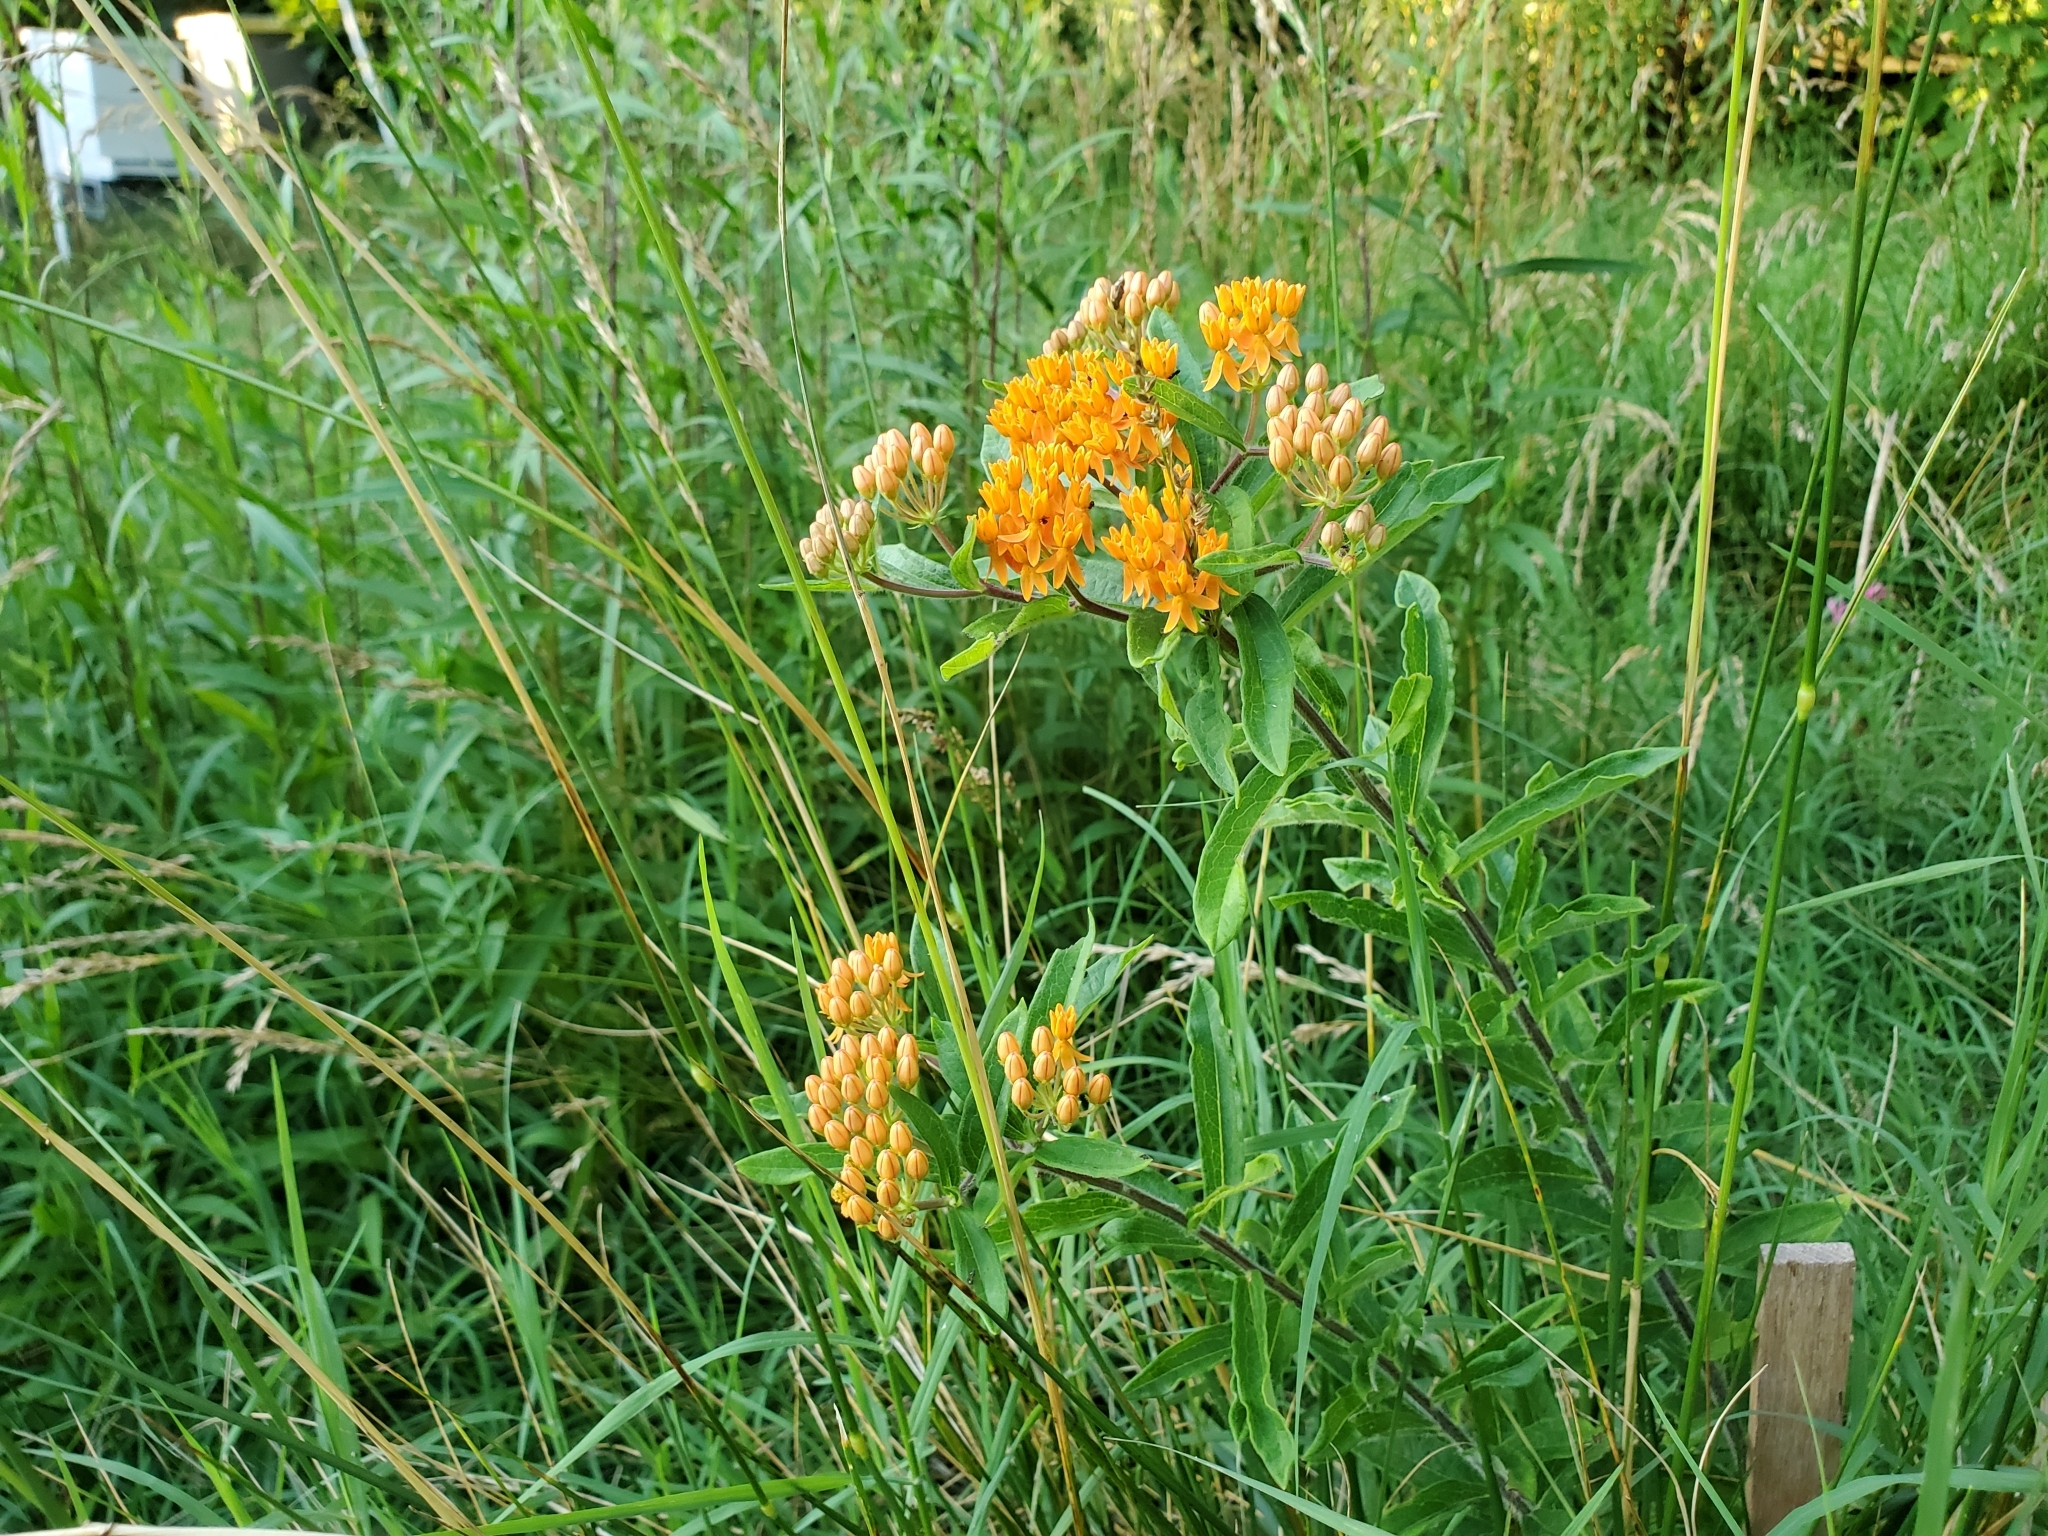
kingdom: Plantae
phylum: Tracheophyta
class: Magnoliopsida
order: Gentianales
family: Apocynaceae
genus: Asclepias
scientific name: Asclepias tuberosa
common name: Butterfly milkweed
